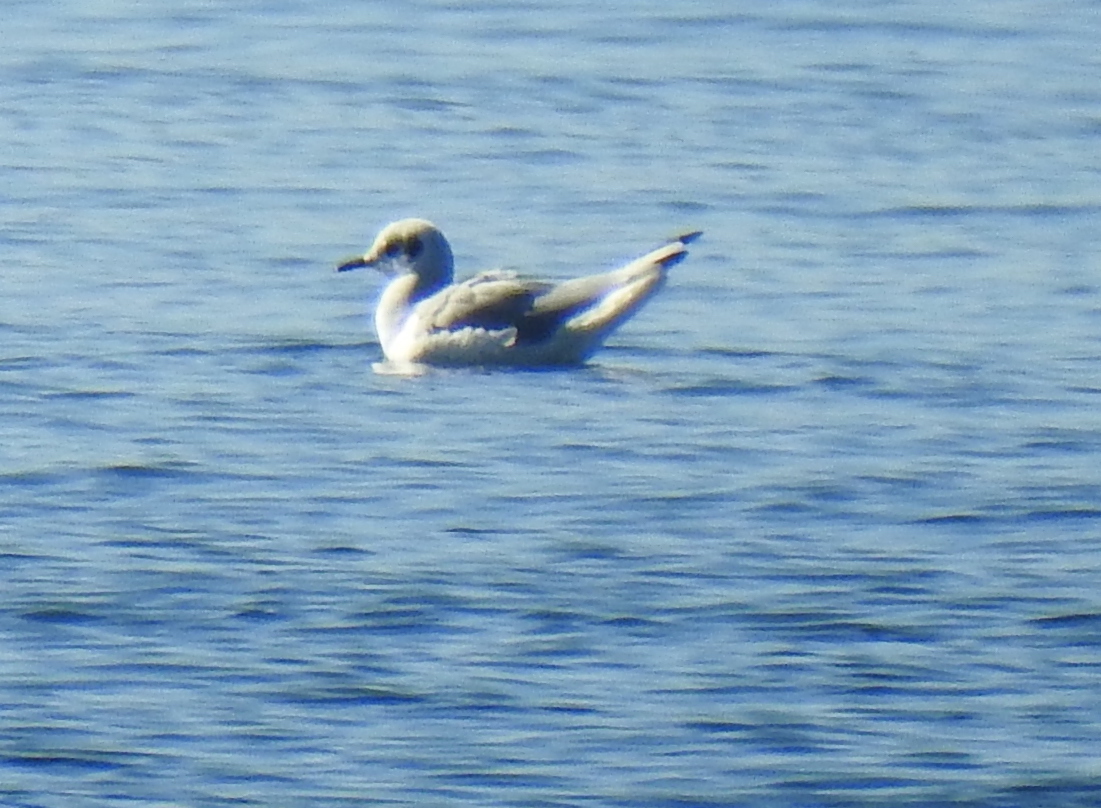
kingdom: Animalia
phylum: Chordata
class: Aves
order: Charadriiformes
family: Laridae
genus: Chroicocephalus
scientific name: Chroicocephalus philadelphia
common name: Bonaparte's gull
